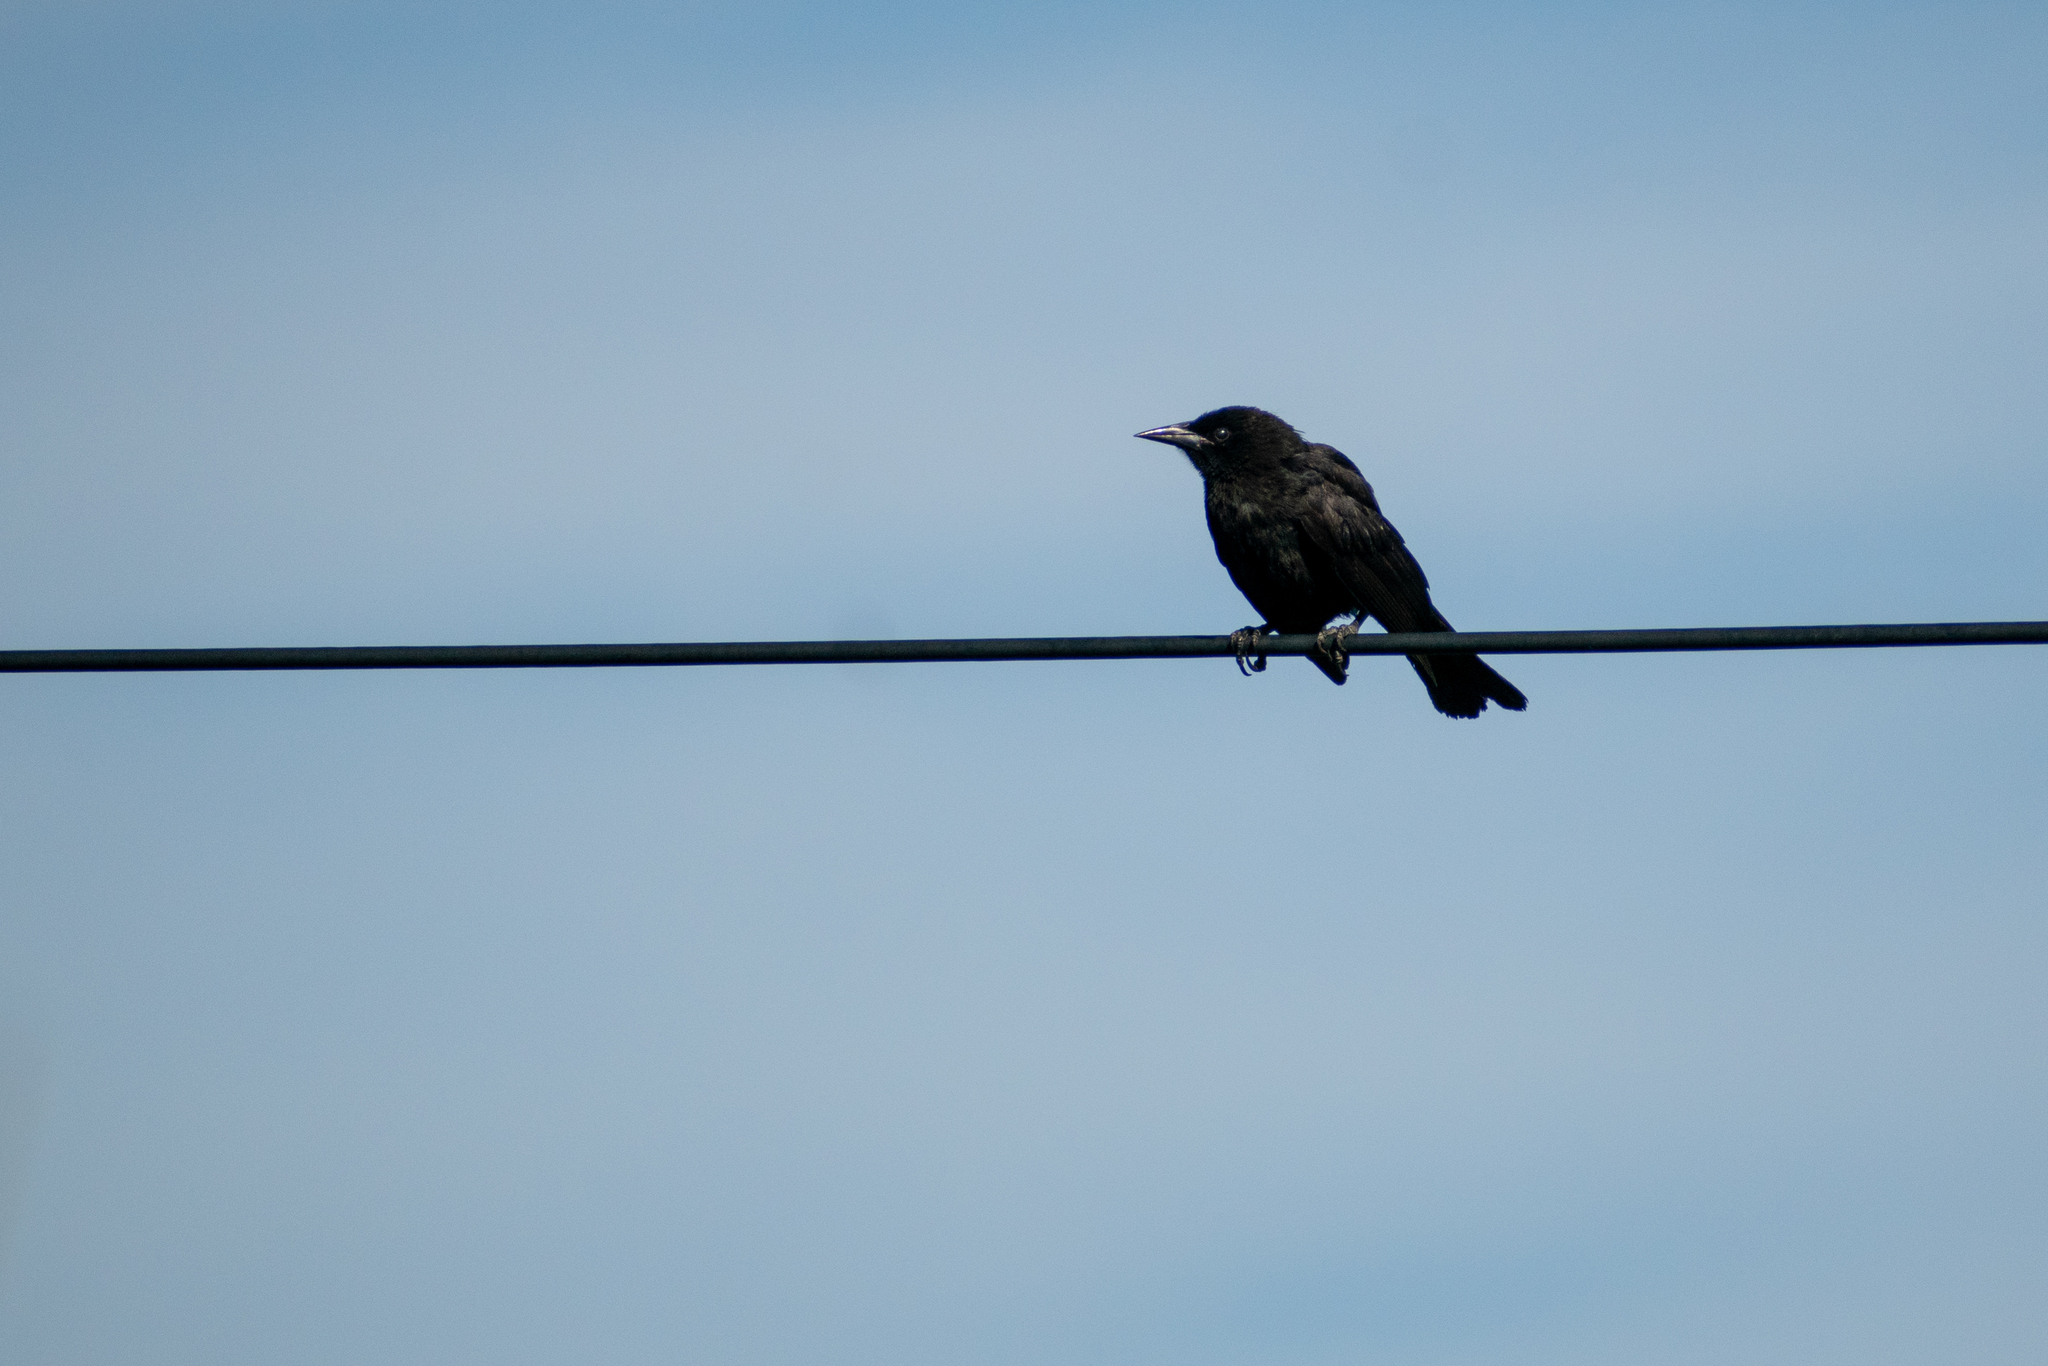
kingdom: Animalia
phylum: Chordata
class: Aves
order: Passeriformes
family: Icteridae
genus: Curaeus
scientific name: Curaeus curaeus
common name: Austral blackbird
